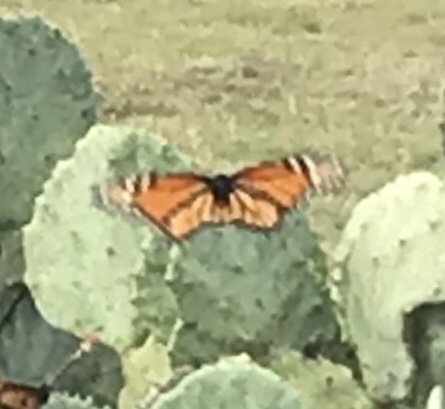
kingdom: Animalia
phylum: Arthropoda
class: Insecta
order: Lepidoptera
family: Nymphalidae
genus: Danaus
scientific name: Danaus plexippus
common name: Monarch
